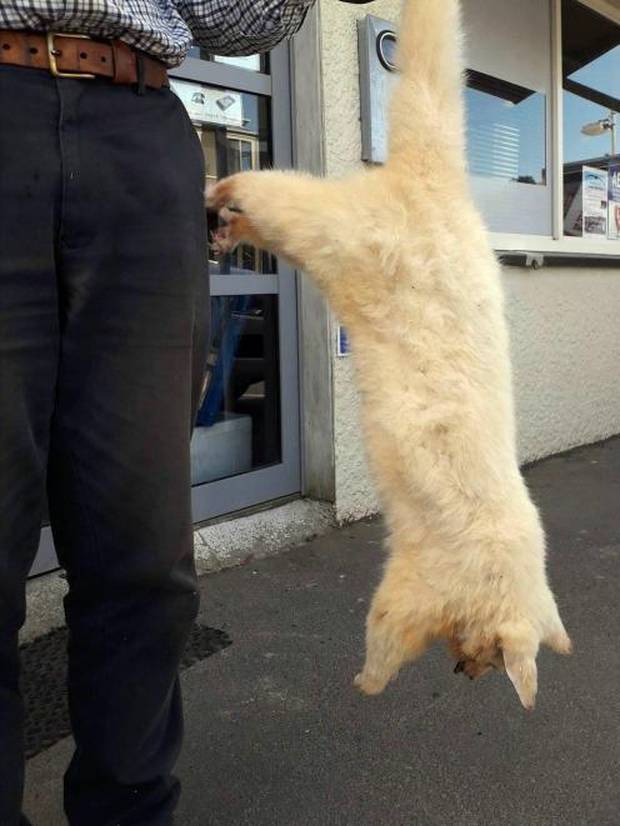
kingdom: Animalia
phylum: Chordata
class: Mammalia
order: Diprotodontia
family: Phalangeridae
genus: Trichosurus
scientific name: Trichosurus vulpecula
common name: Common brushtail
